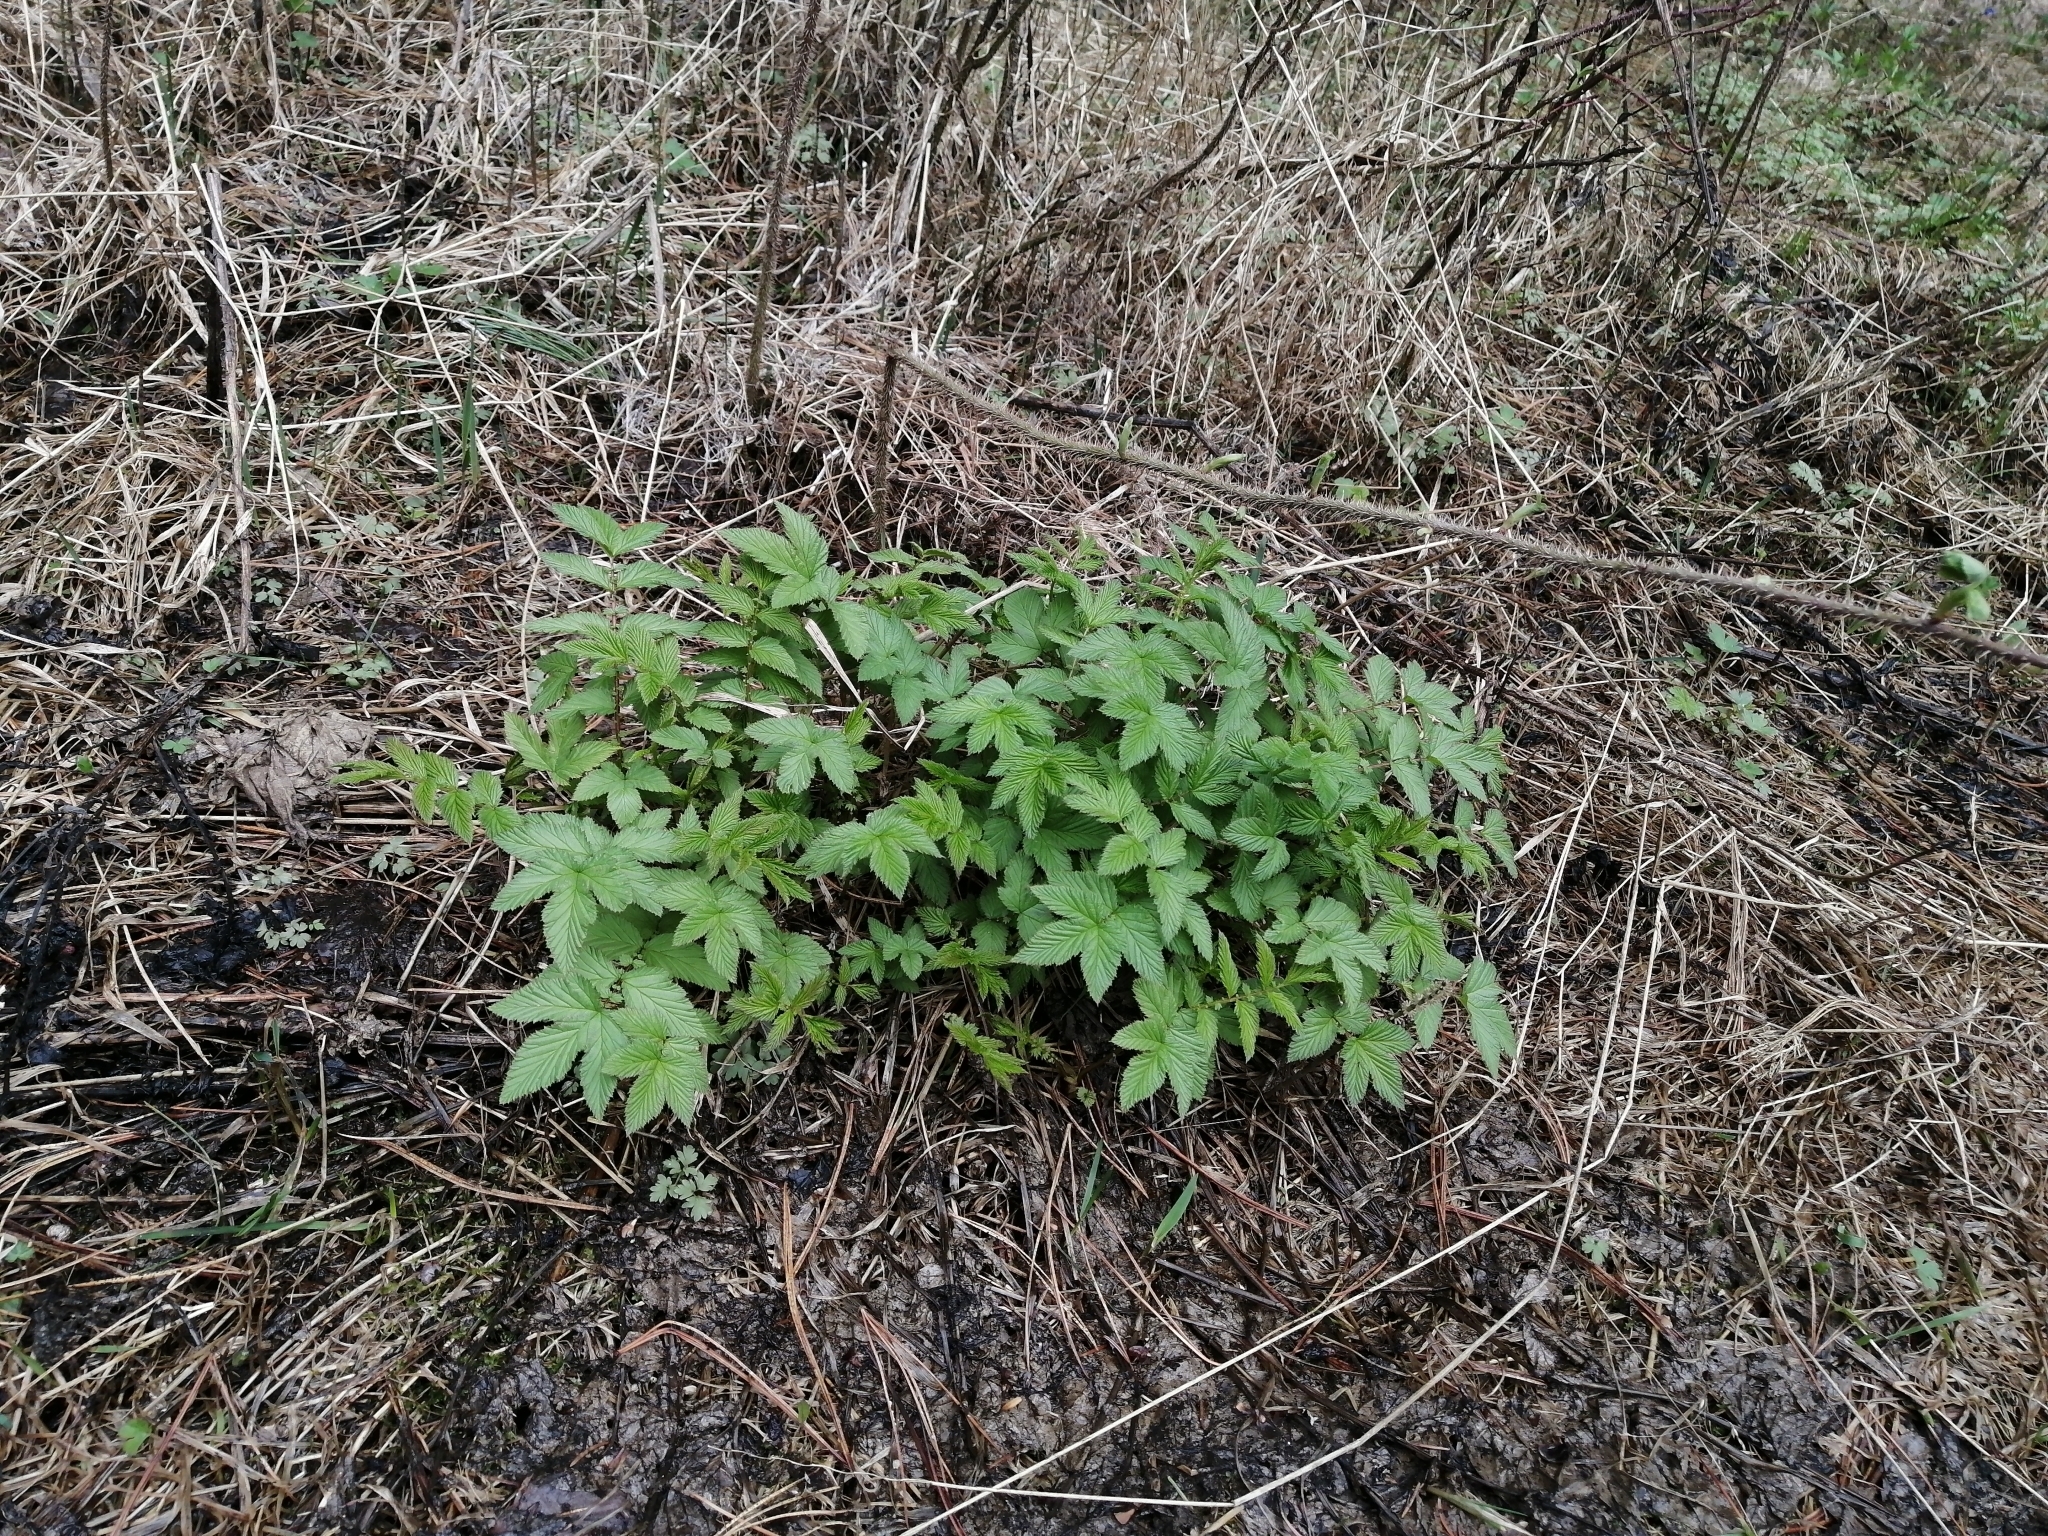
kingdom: Plantae
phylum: Tracheophyta
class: Magnoliopsida
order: Rosales
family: Rosaceae
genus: Filipendula
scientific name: Filipendula ulmaria
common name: Meadowsweet
